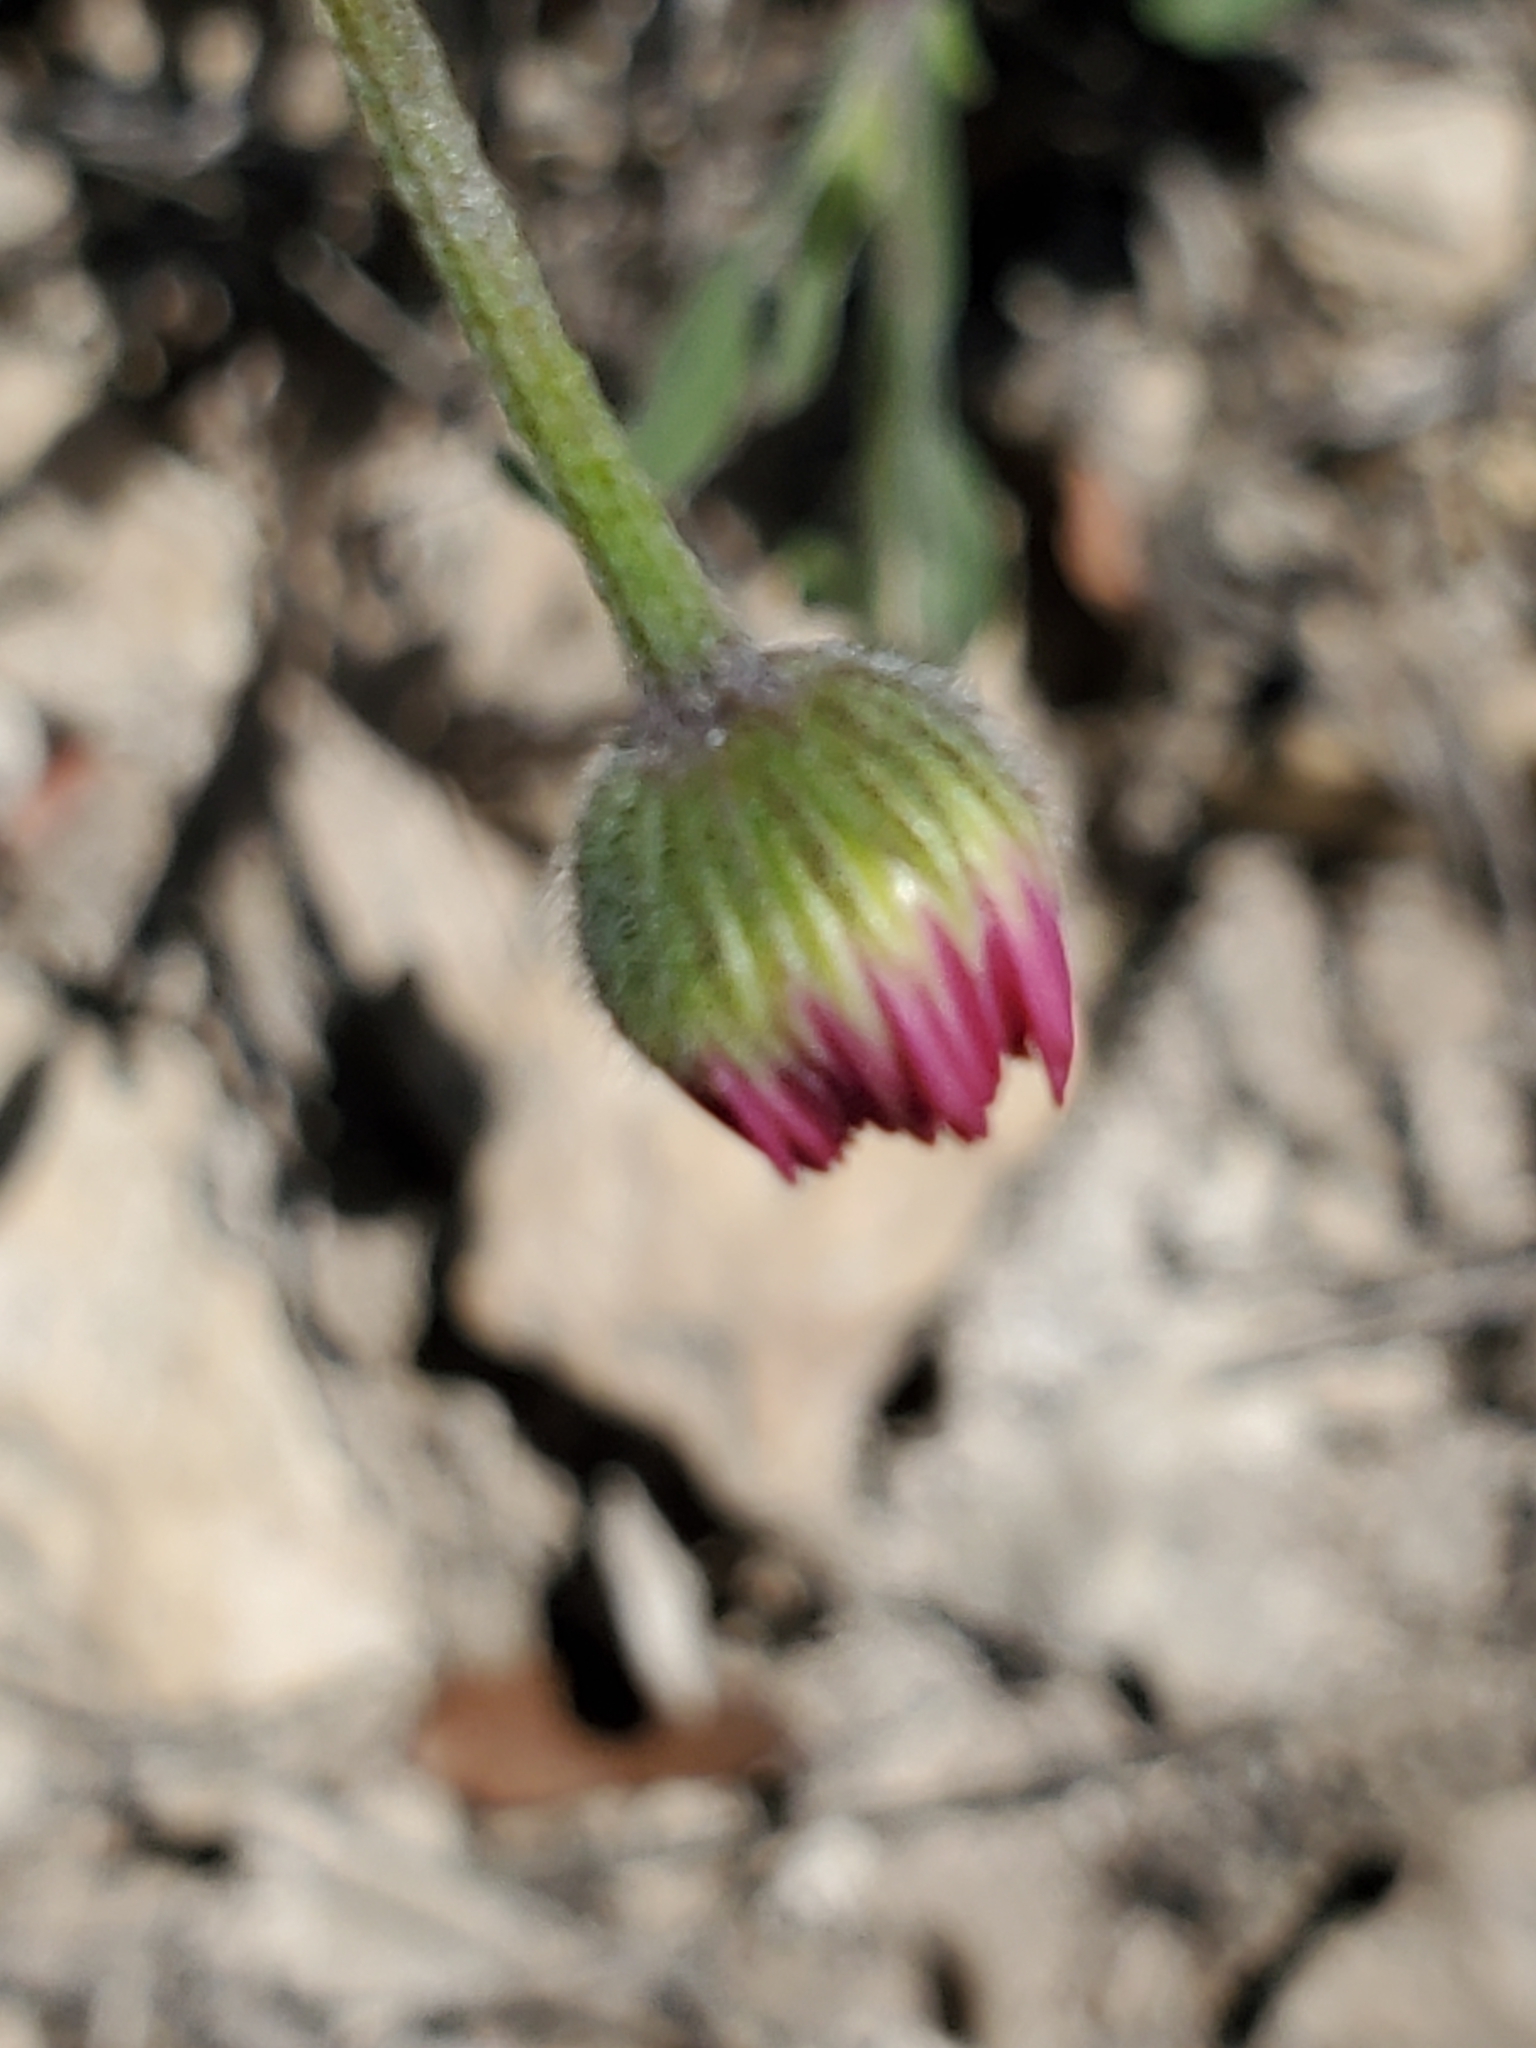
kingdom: Plantae
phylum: Tracheophyta
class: Magnoliopsida
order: Asterales
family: Asteraceae
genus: Erigeron
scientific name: Erigeron modestus
